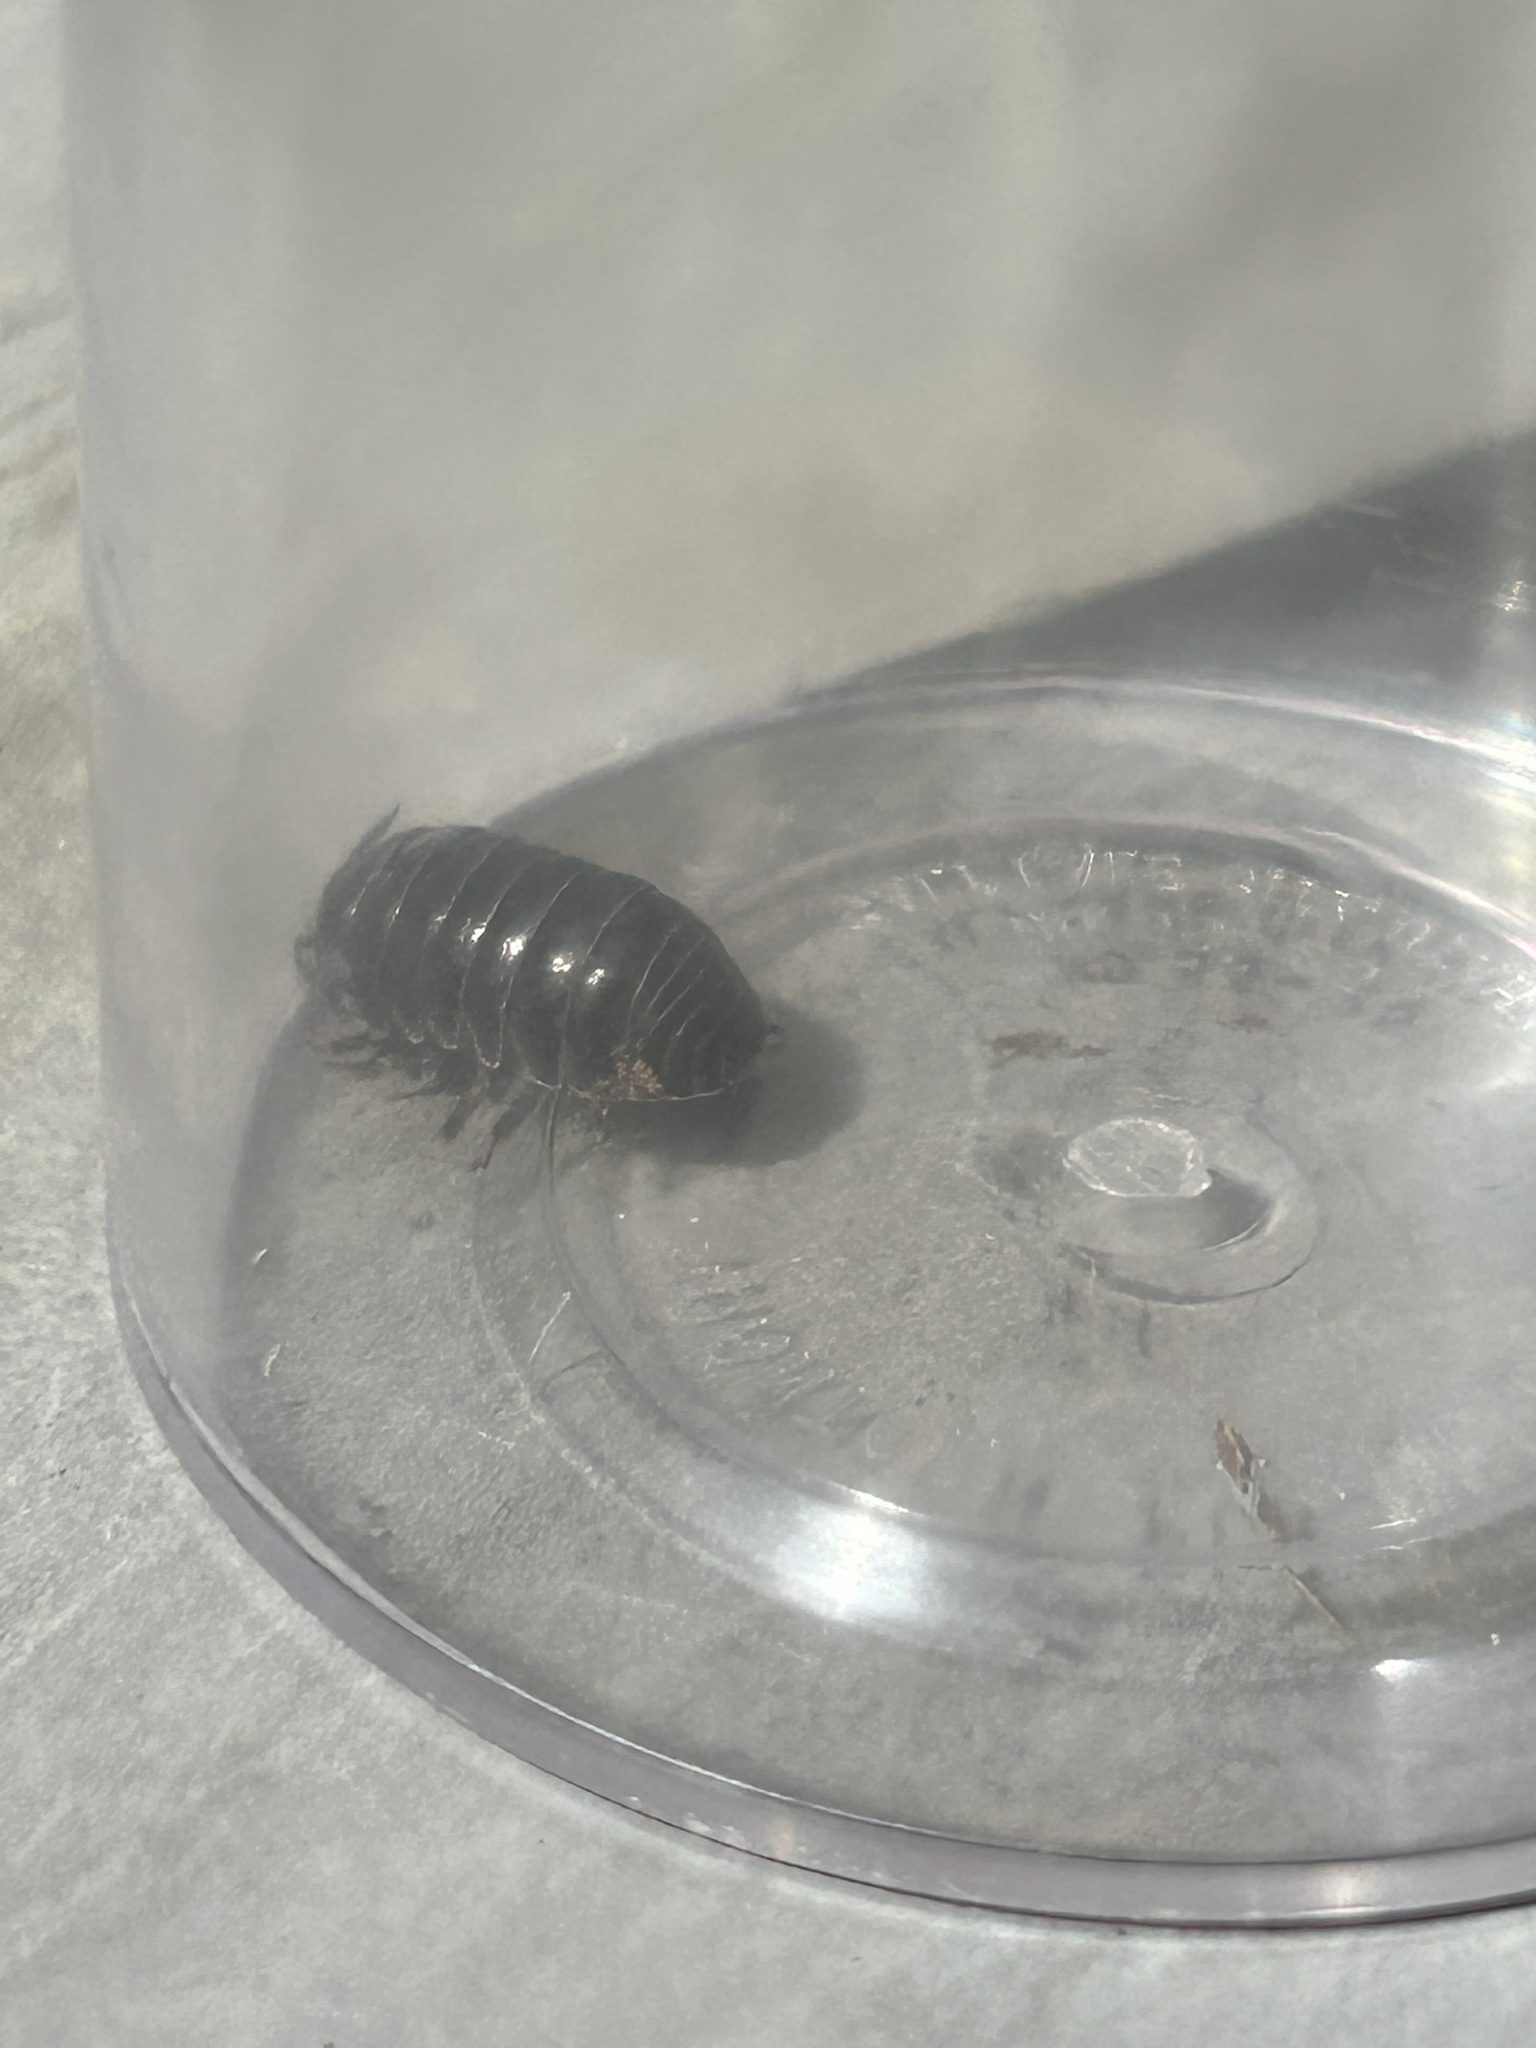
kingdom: Animalia
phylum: Arthropoda
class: Malacostraca
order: Isopoda
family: Armadillidiidae
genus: Armadillidium
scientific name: Armadillidium vulgare
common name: Common pill woodlouse
